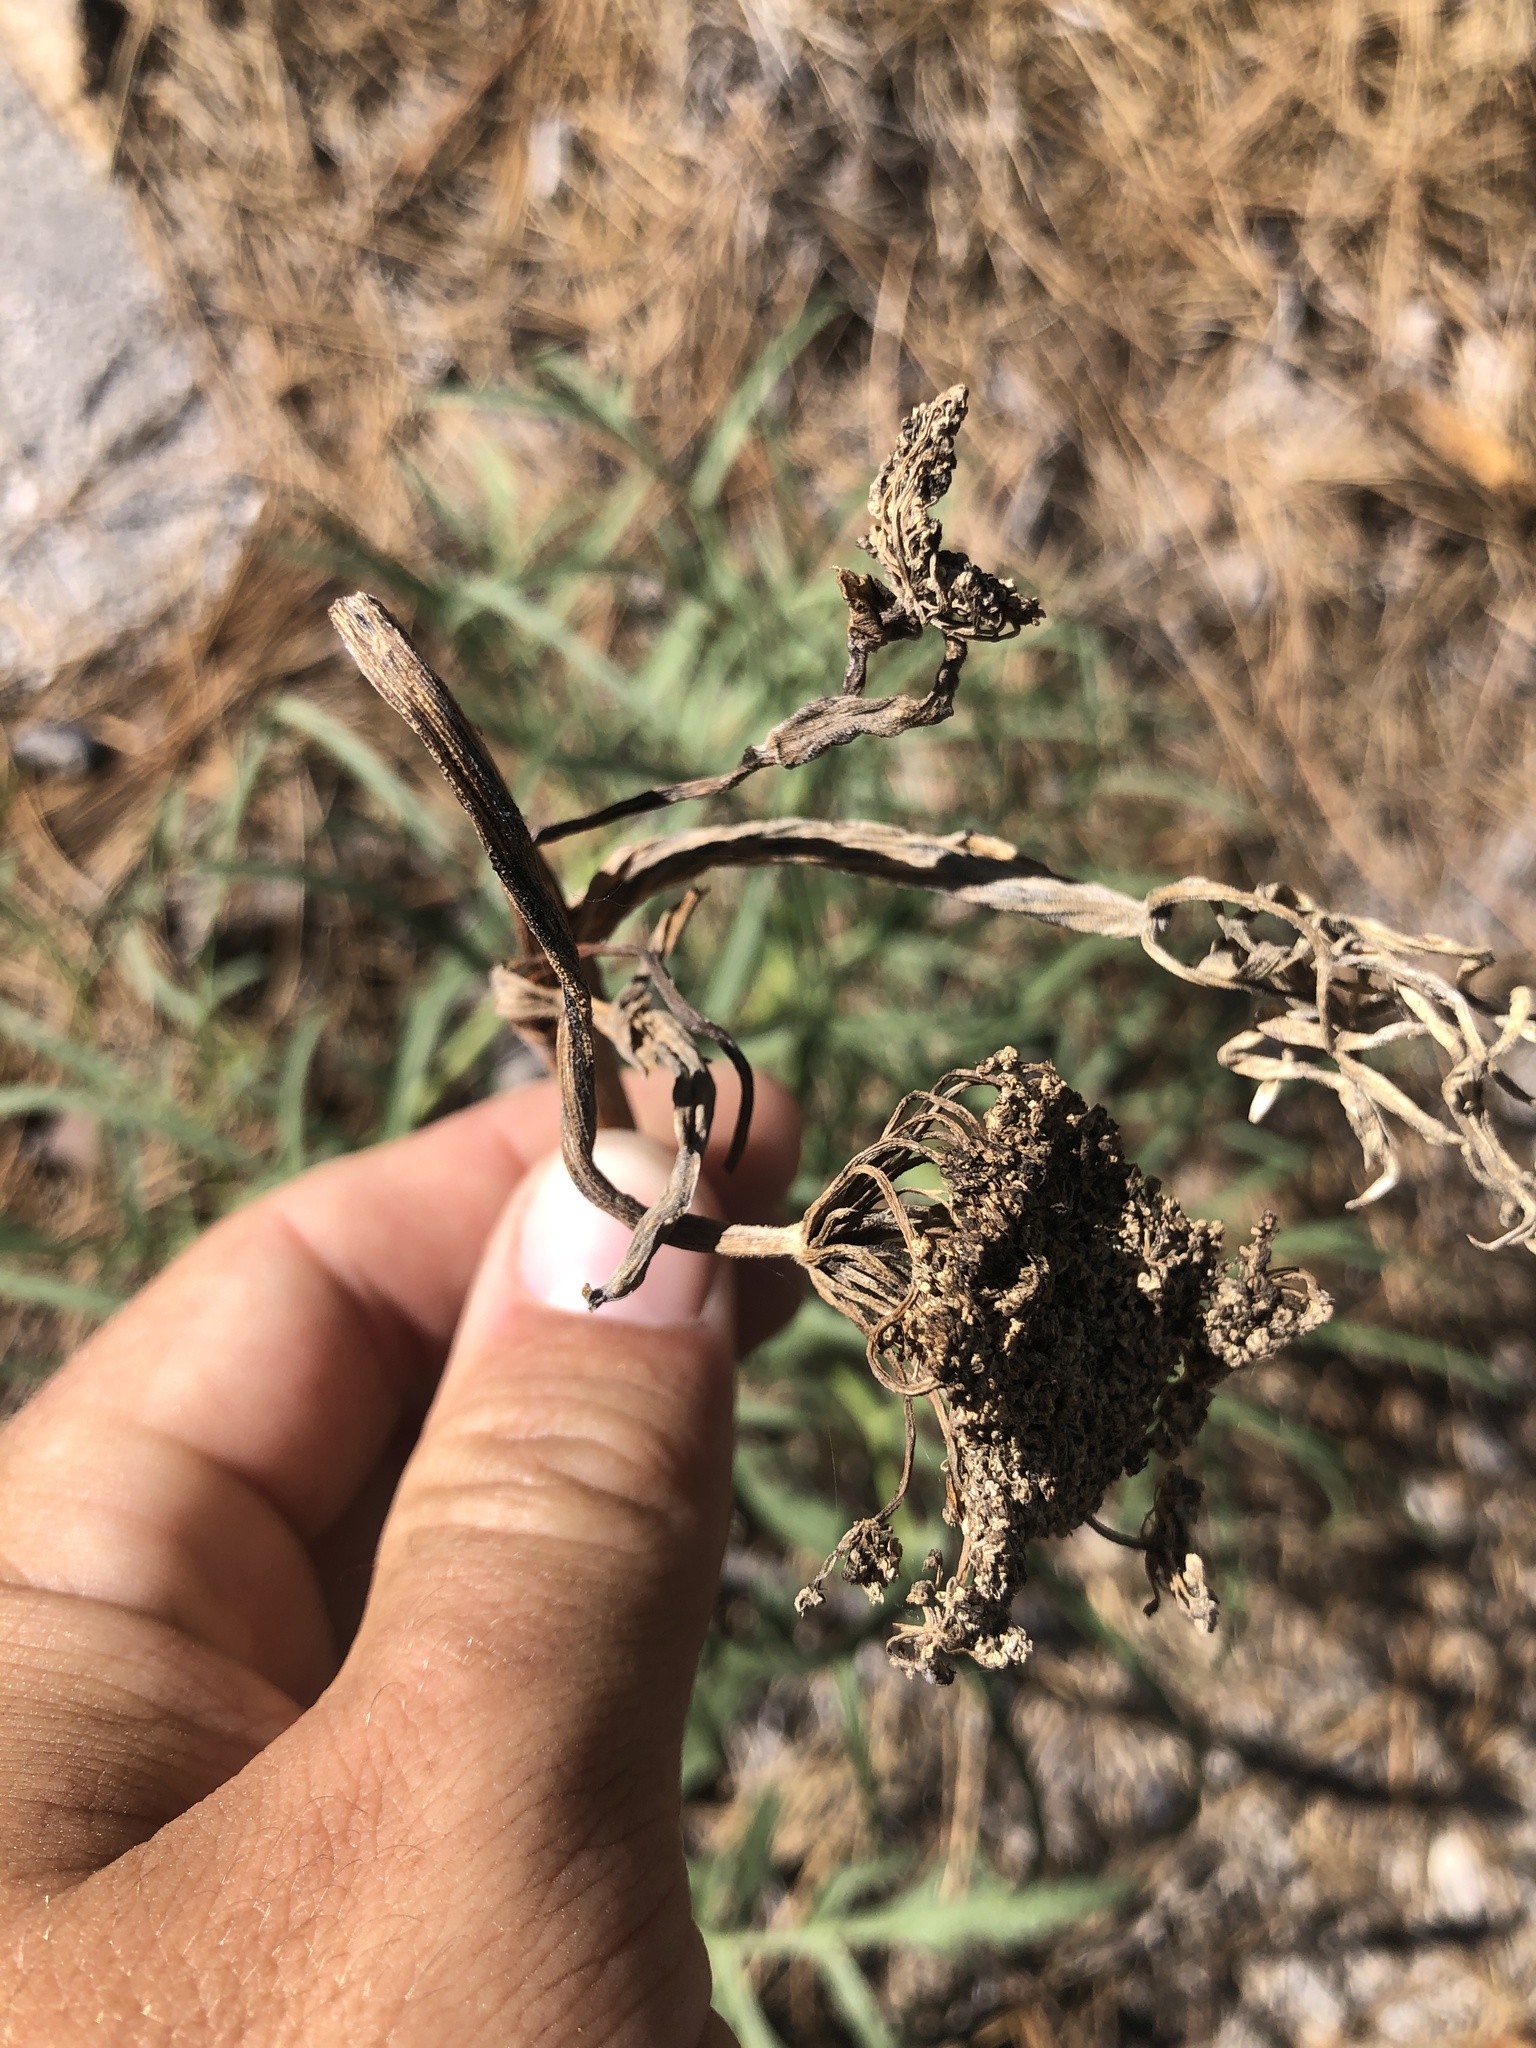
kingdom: Plantae
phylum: Tracheophyta
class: Magnoliopsida
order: Apiales
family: Apiaceae
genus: Angelica
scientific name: Angelica lineariloba
